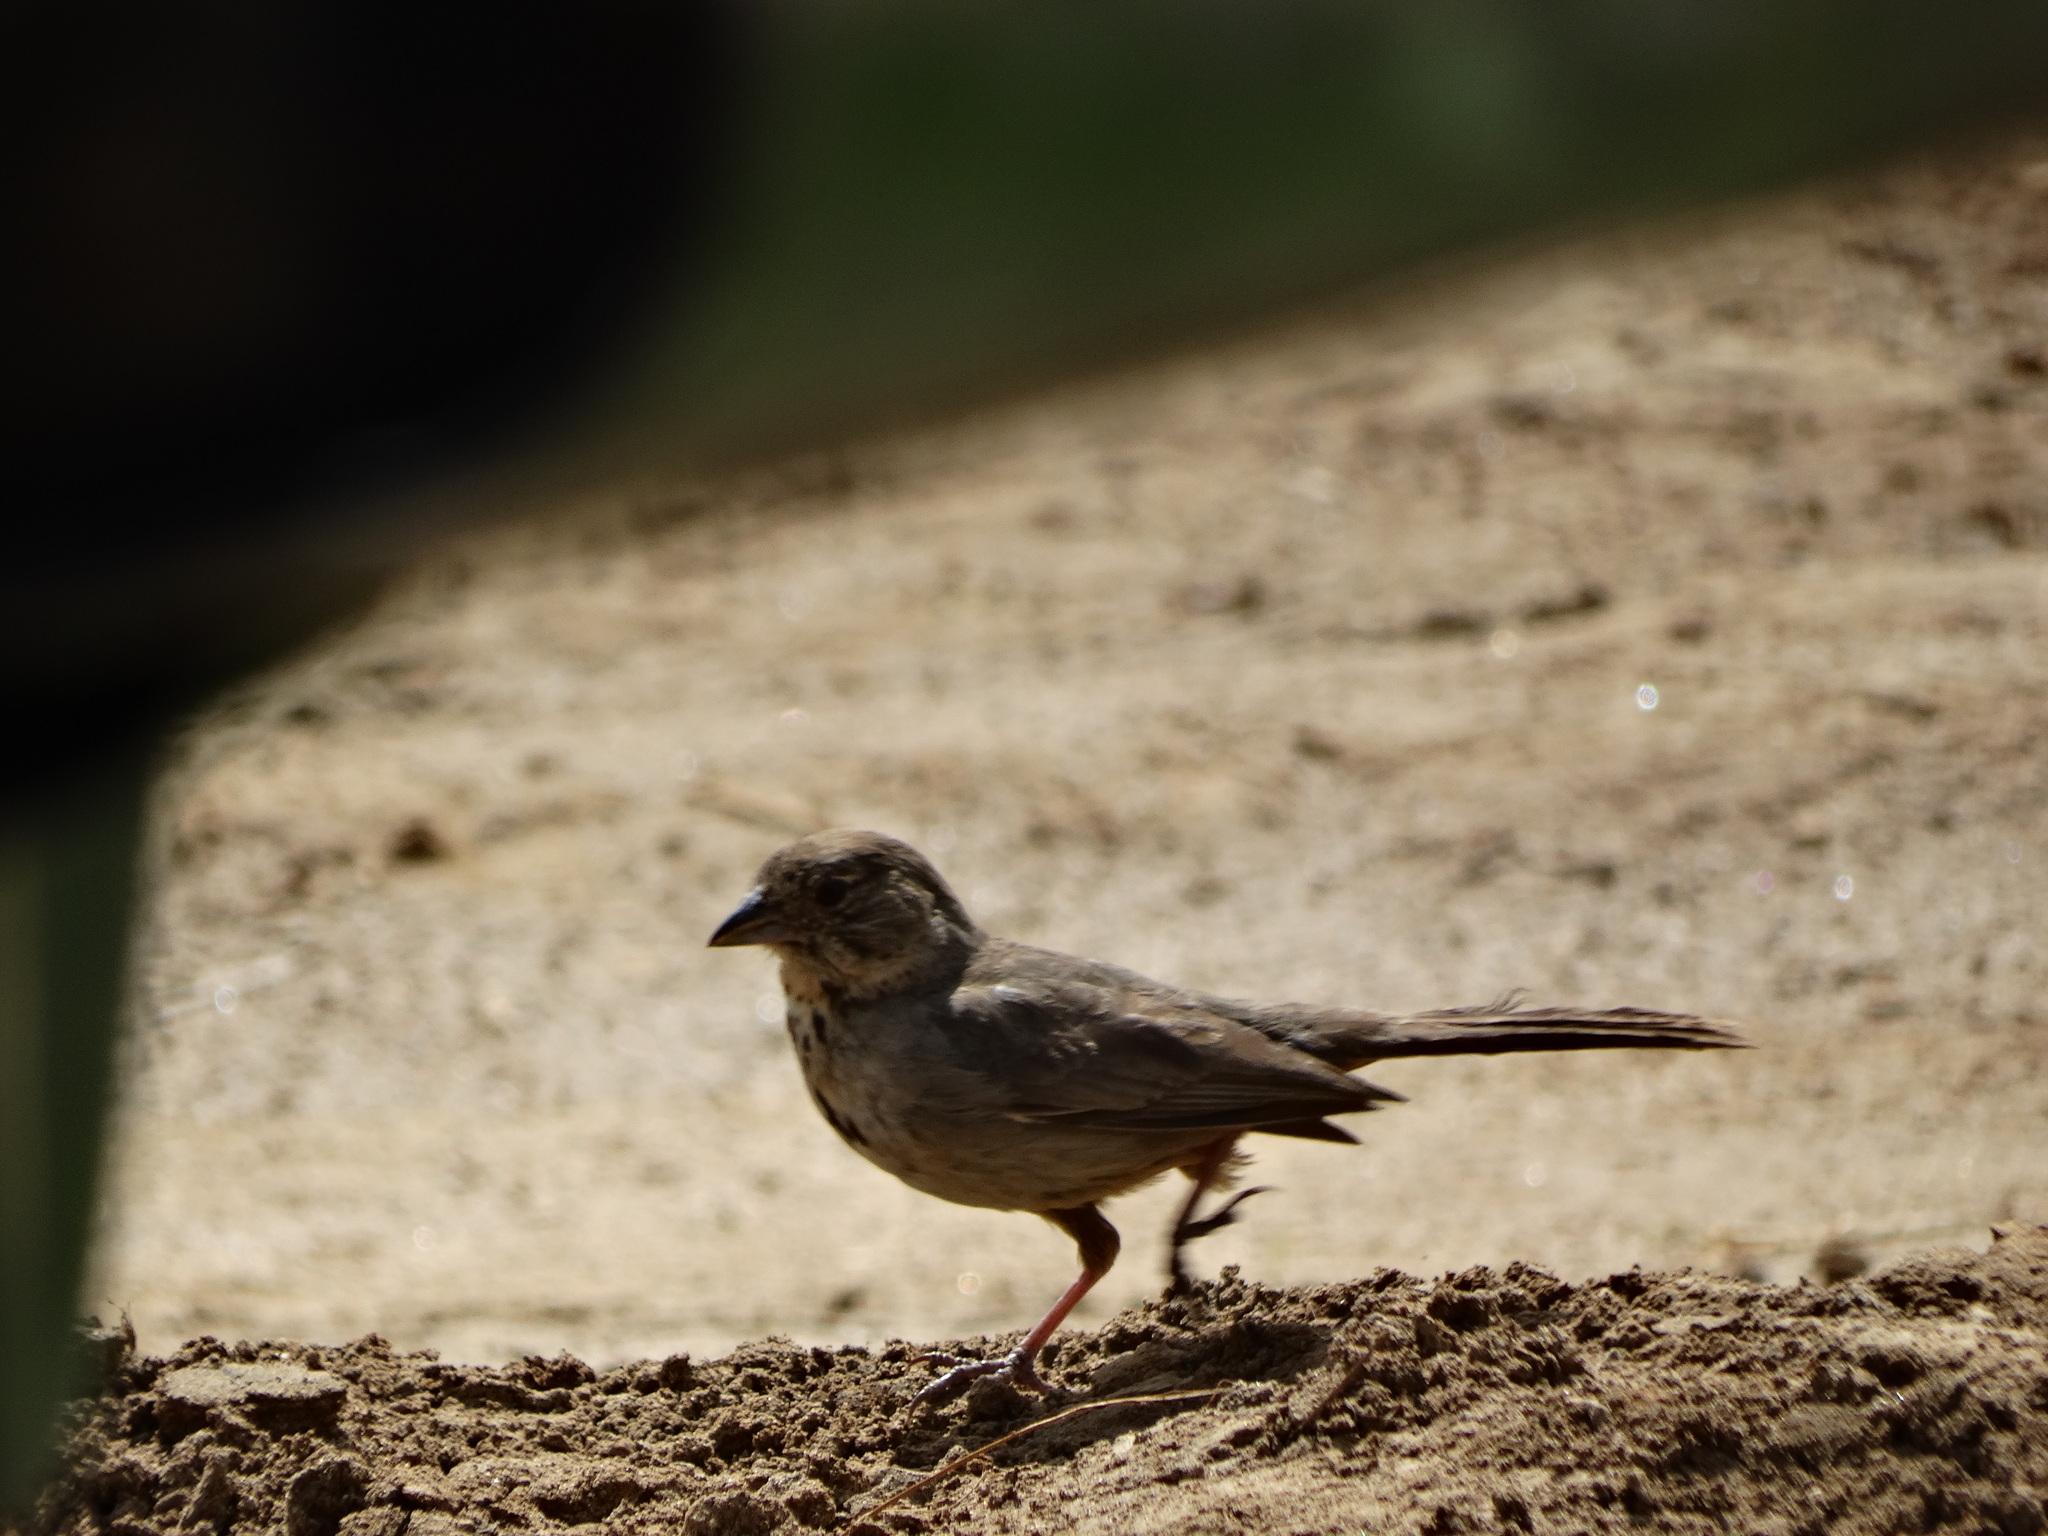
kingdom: Animalia
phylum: Chordata
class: Aves
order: Passeriformes
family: Passerellidae
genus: Melozone
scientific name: Melozone fusca
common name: Canyon towhee
